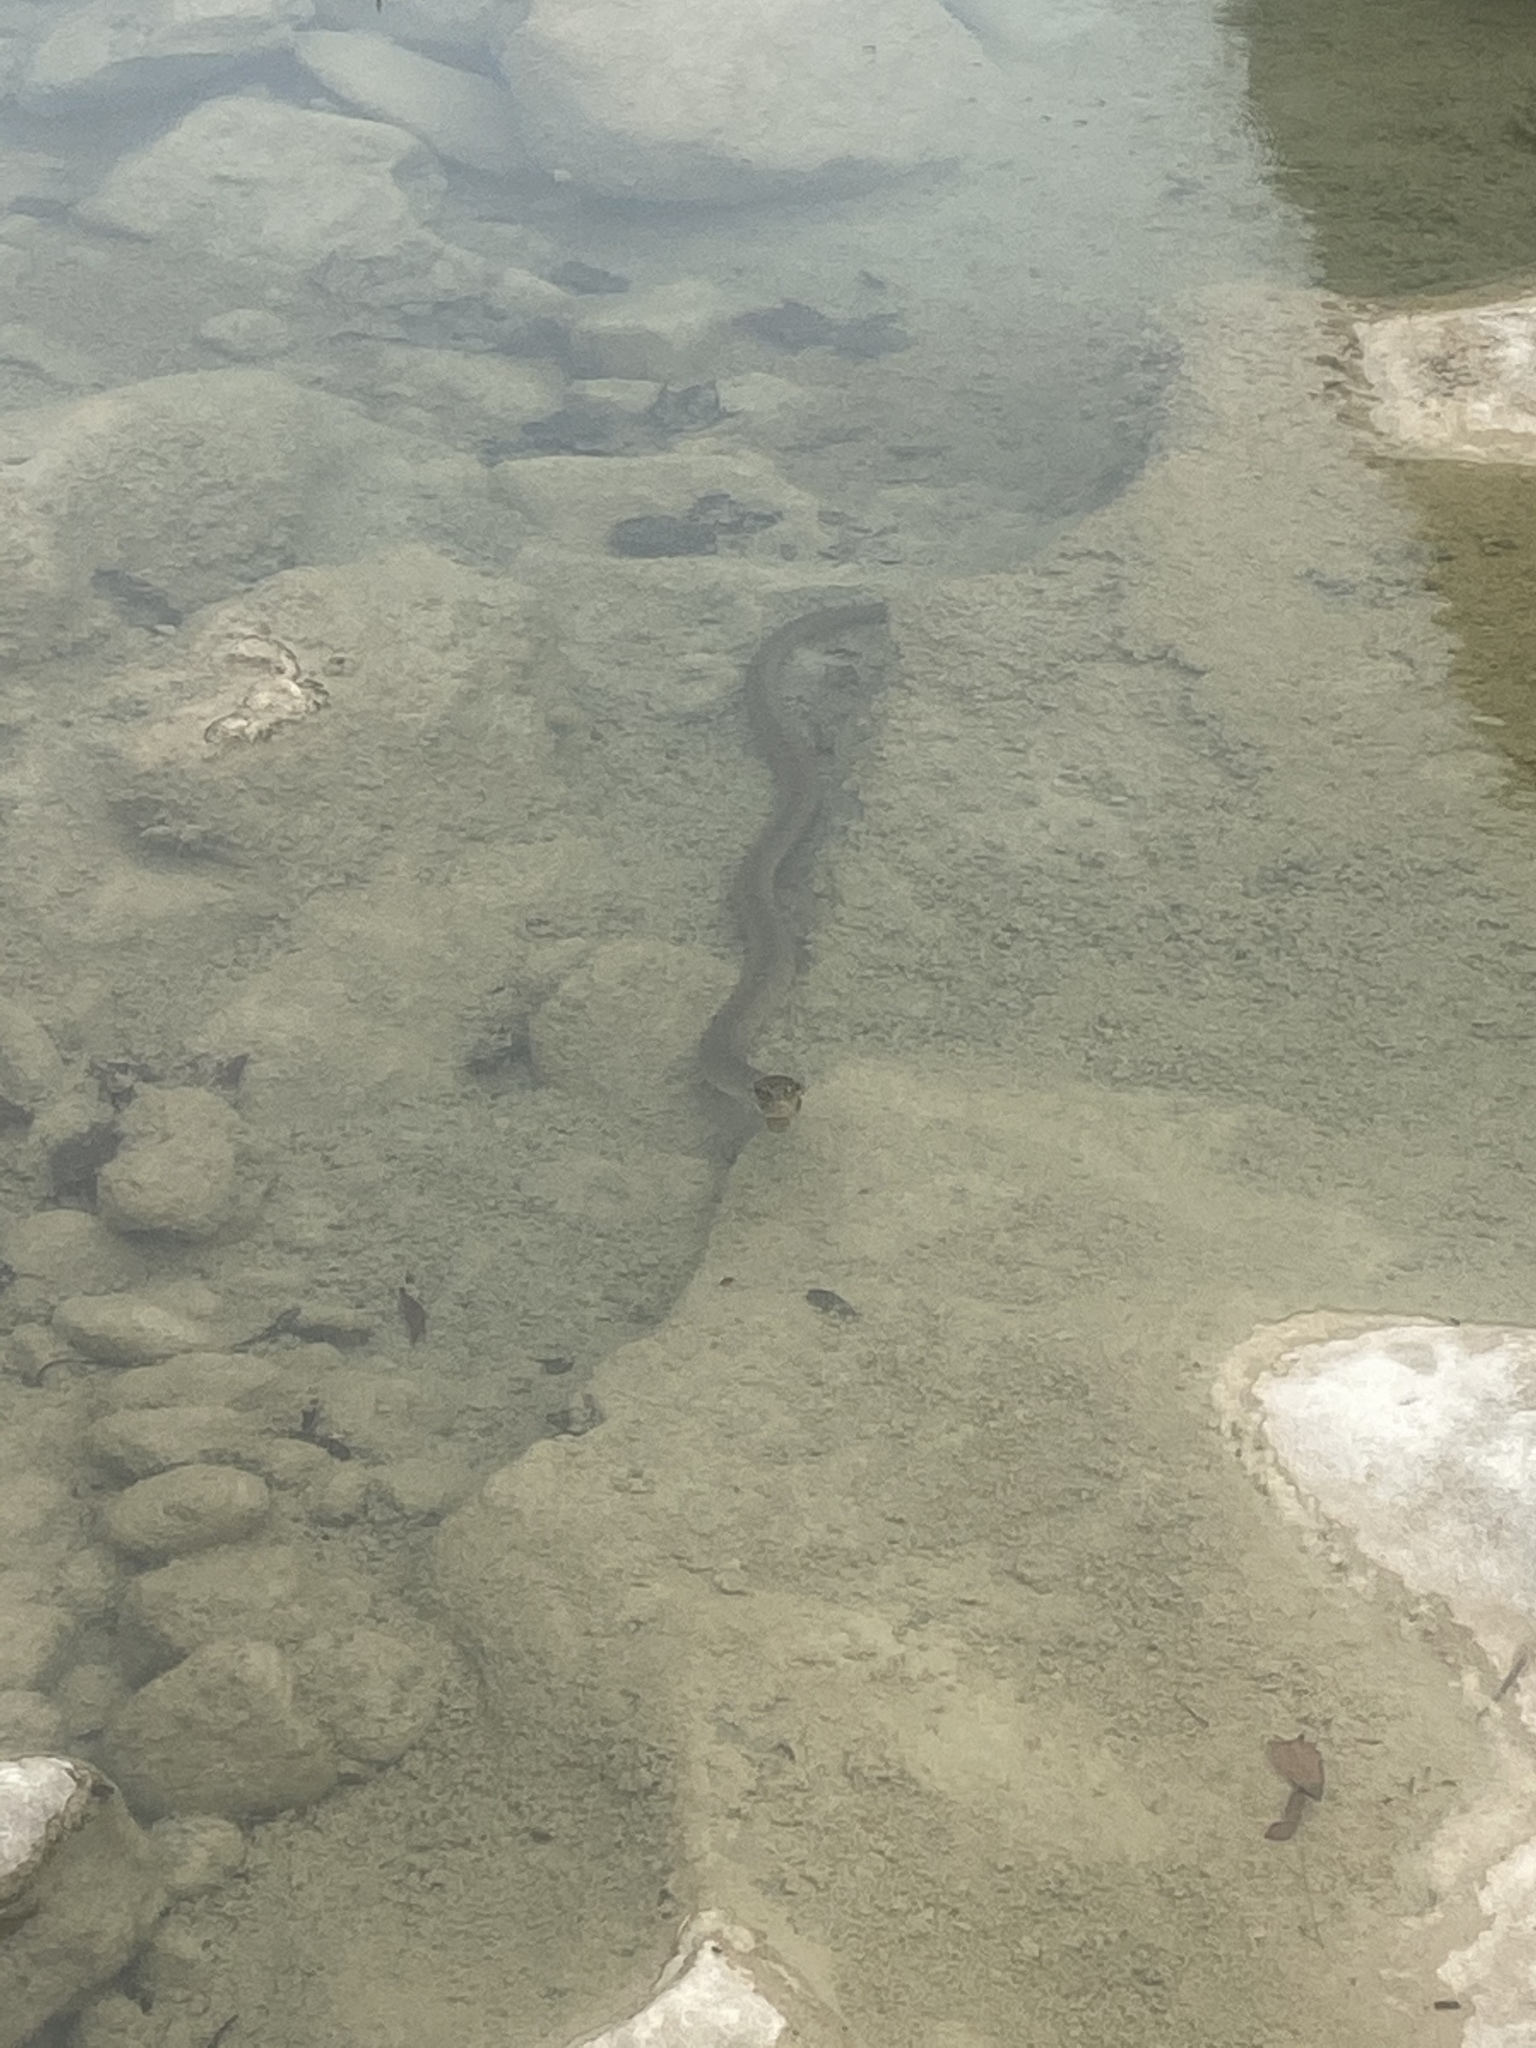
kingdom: Animalia
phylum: Chordata
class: Squamata
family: Colubridae
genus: Nerodia
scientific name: Nerodia erythrogaster
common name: Plainbelly water snake
